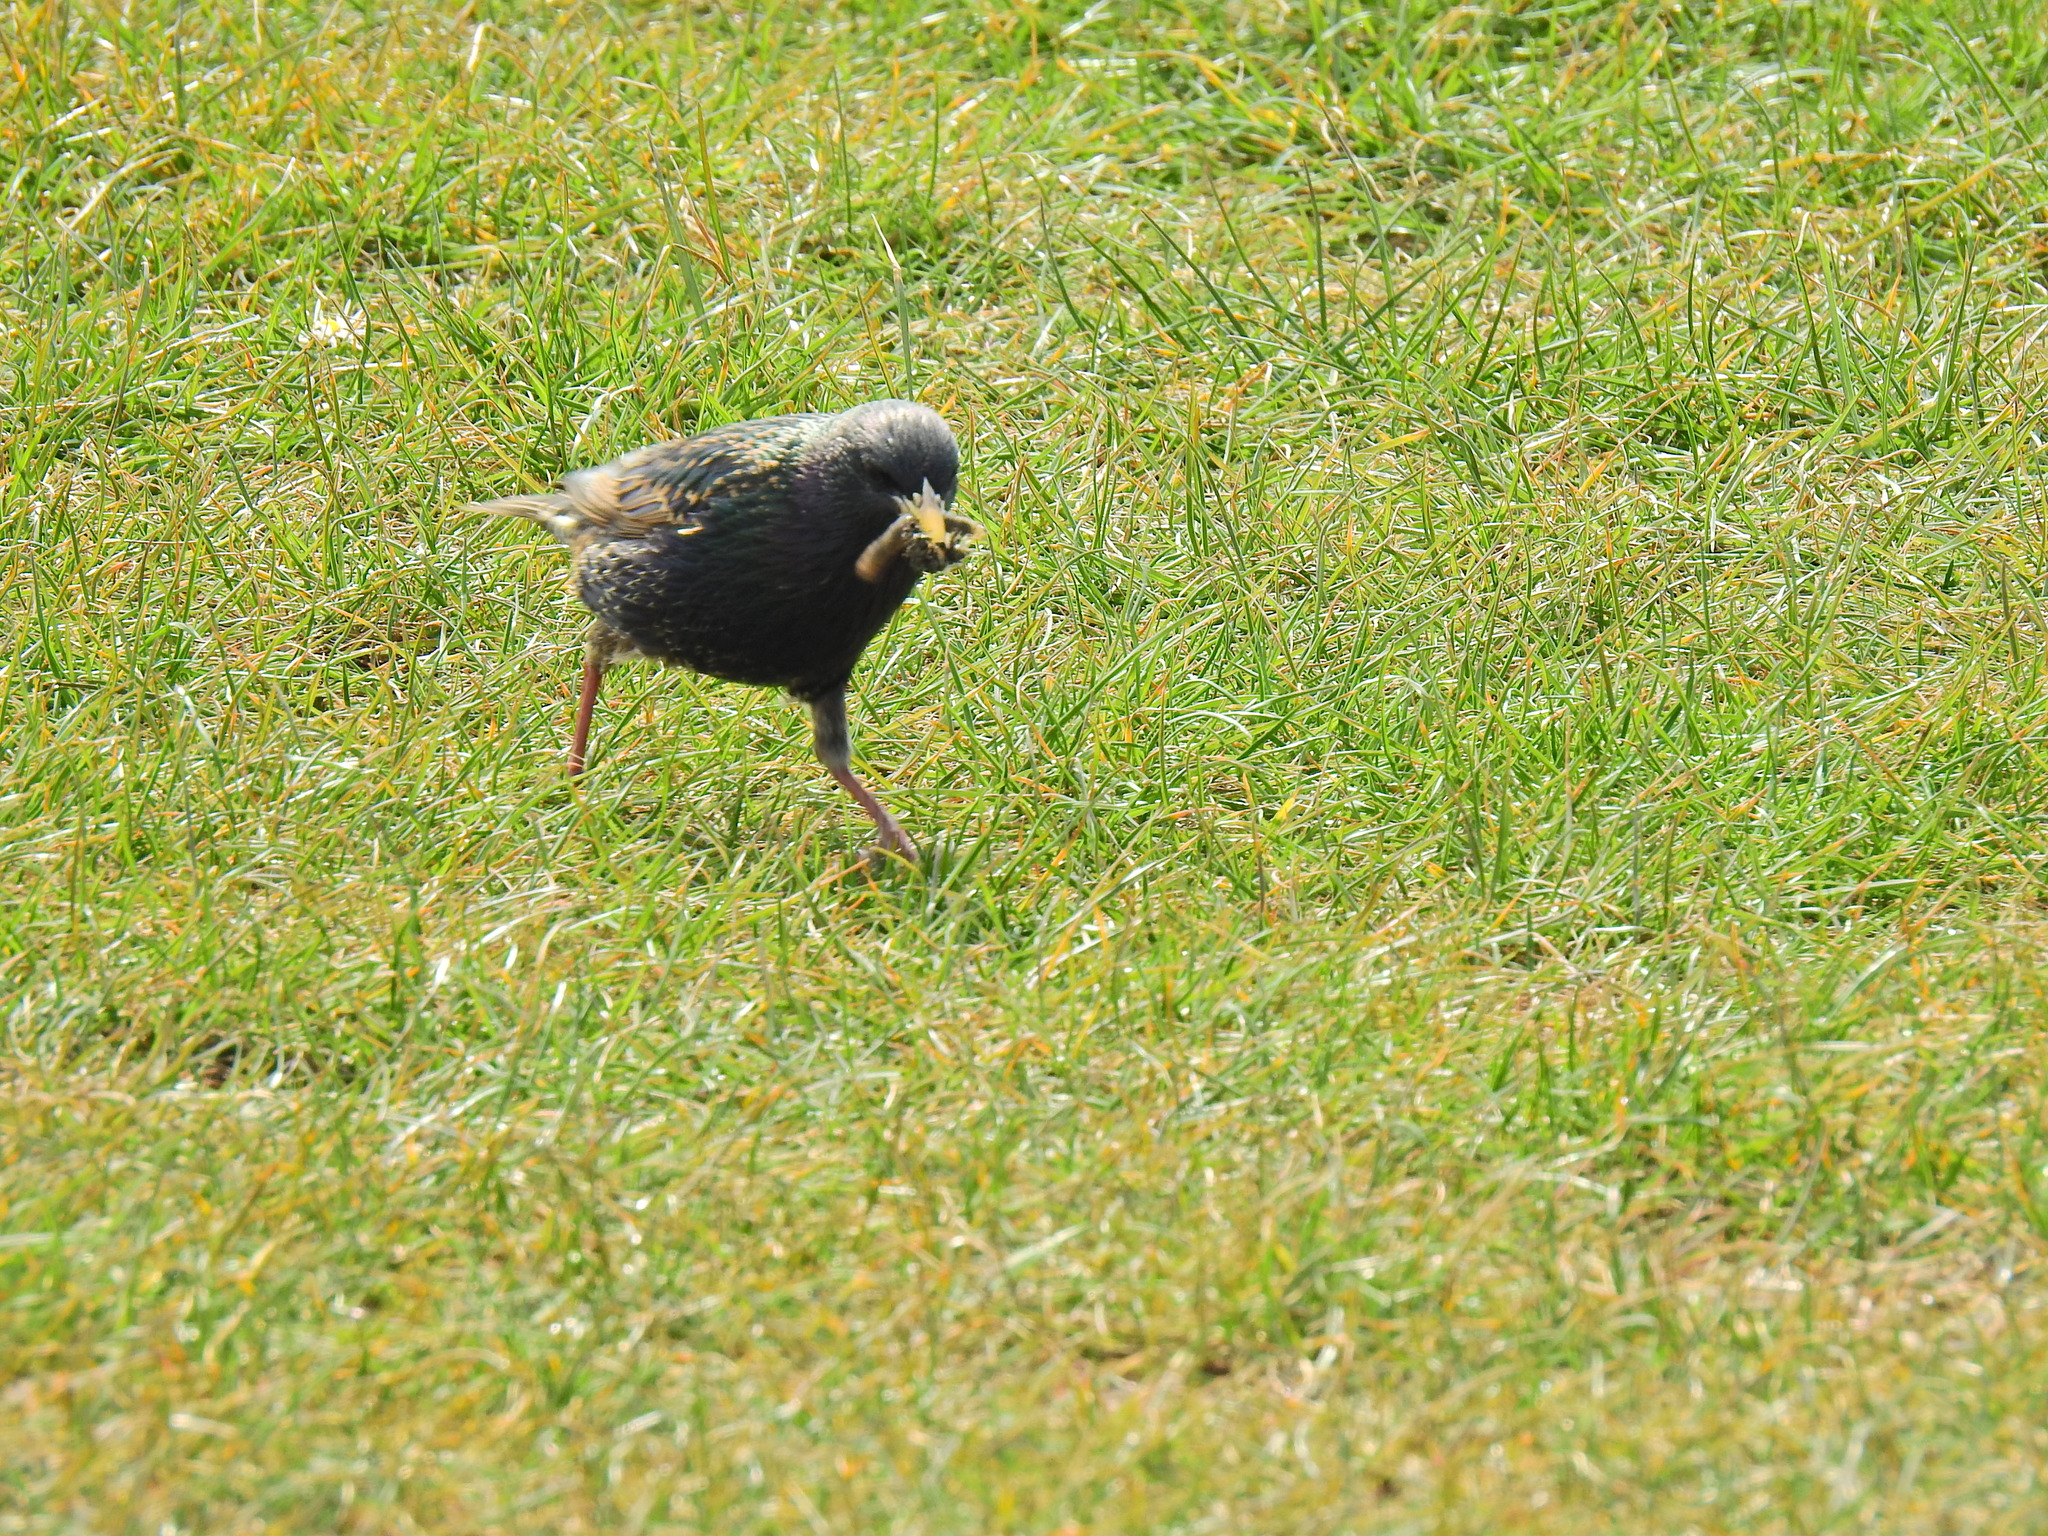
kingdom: Animalia
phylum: Chordata
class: Aves
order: Passeriformes
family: Sturnidae
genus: Sturnus
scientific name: Sturnus vulgaris
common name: Common starling
